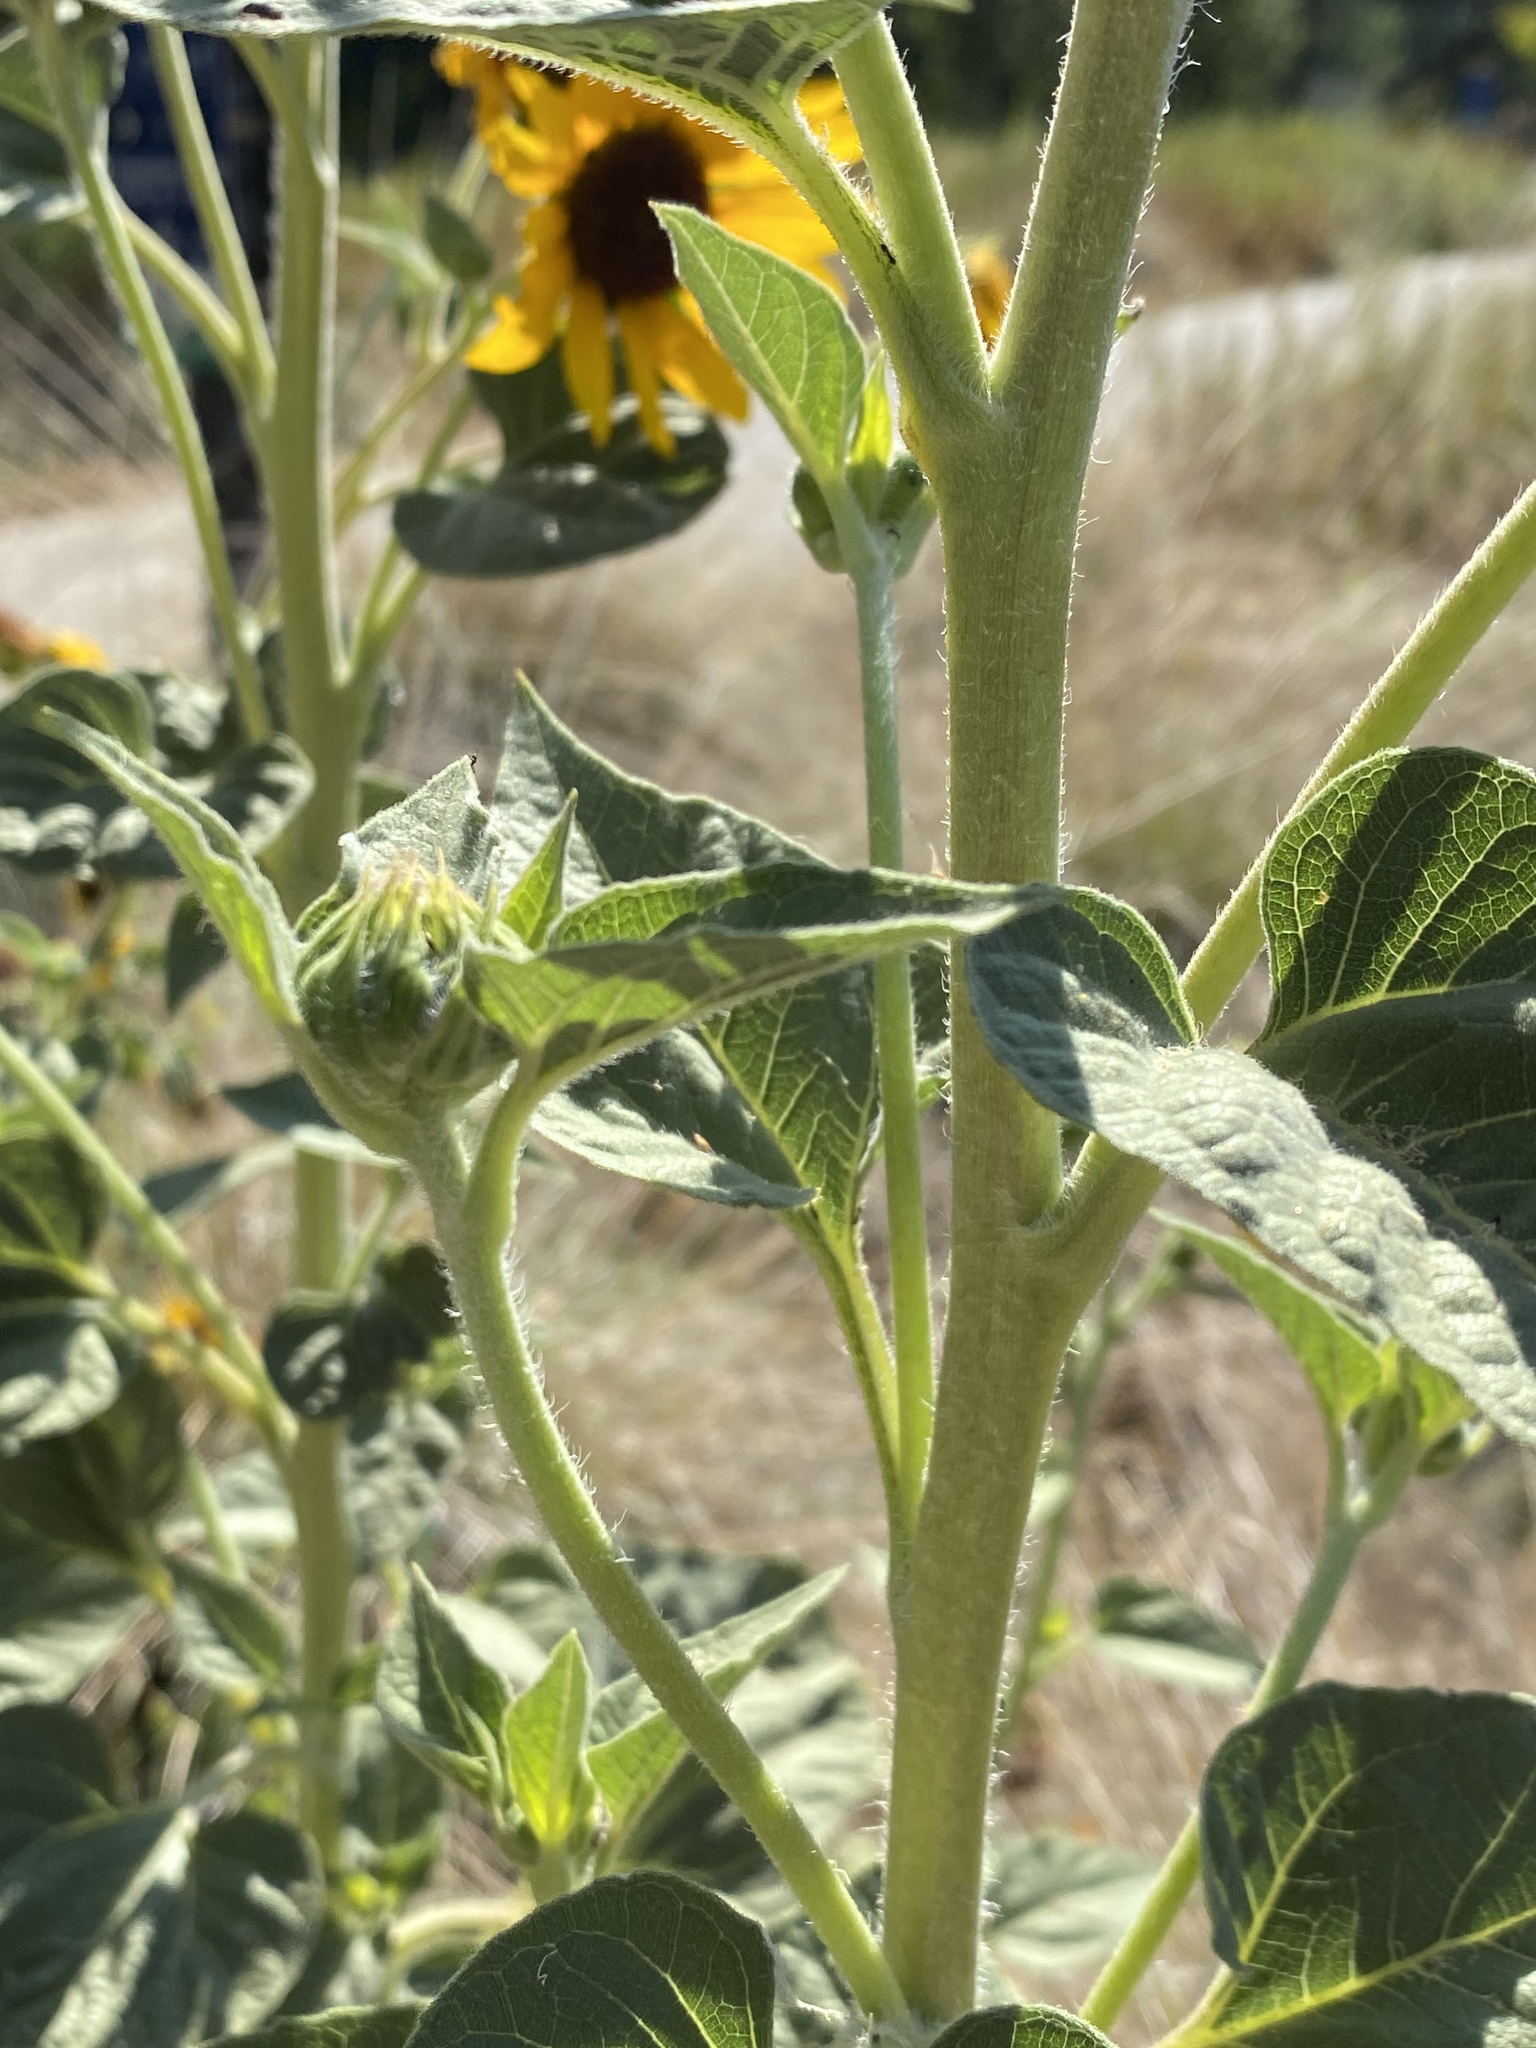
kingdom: Plantae
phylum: Tracheophyta
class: Magnoliopsida
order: Asterales
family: Asteraceae
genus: Helianthus
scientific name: Helianthus annuus
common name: Sunflower
